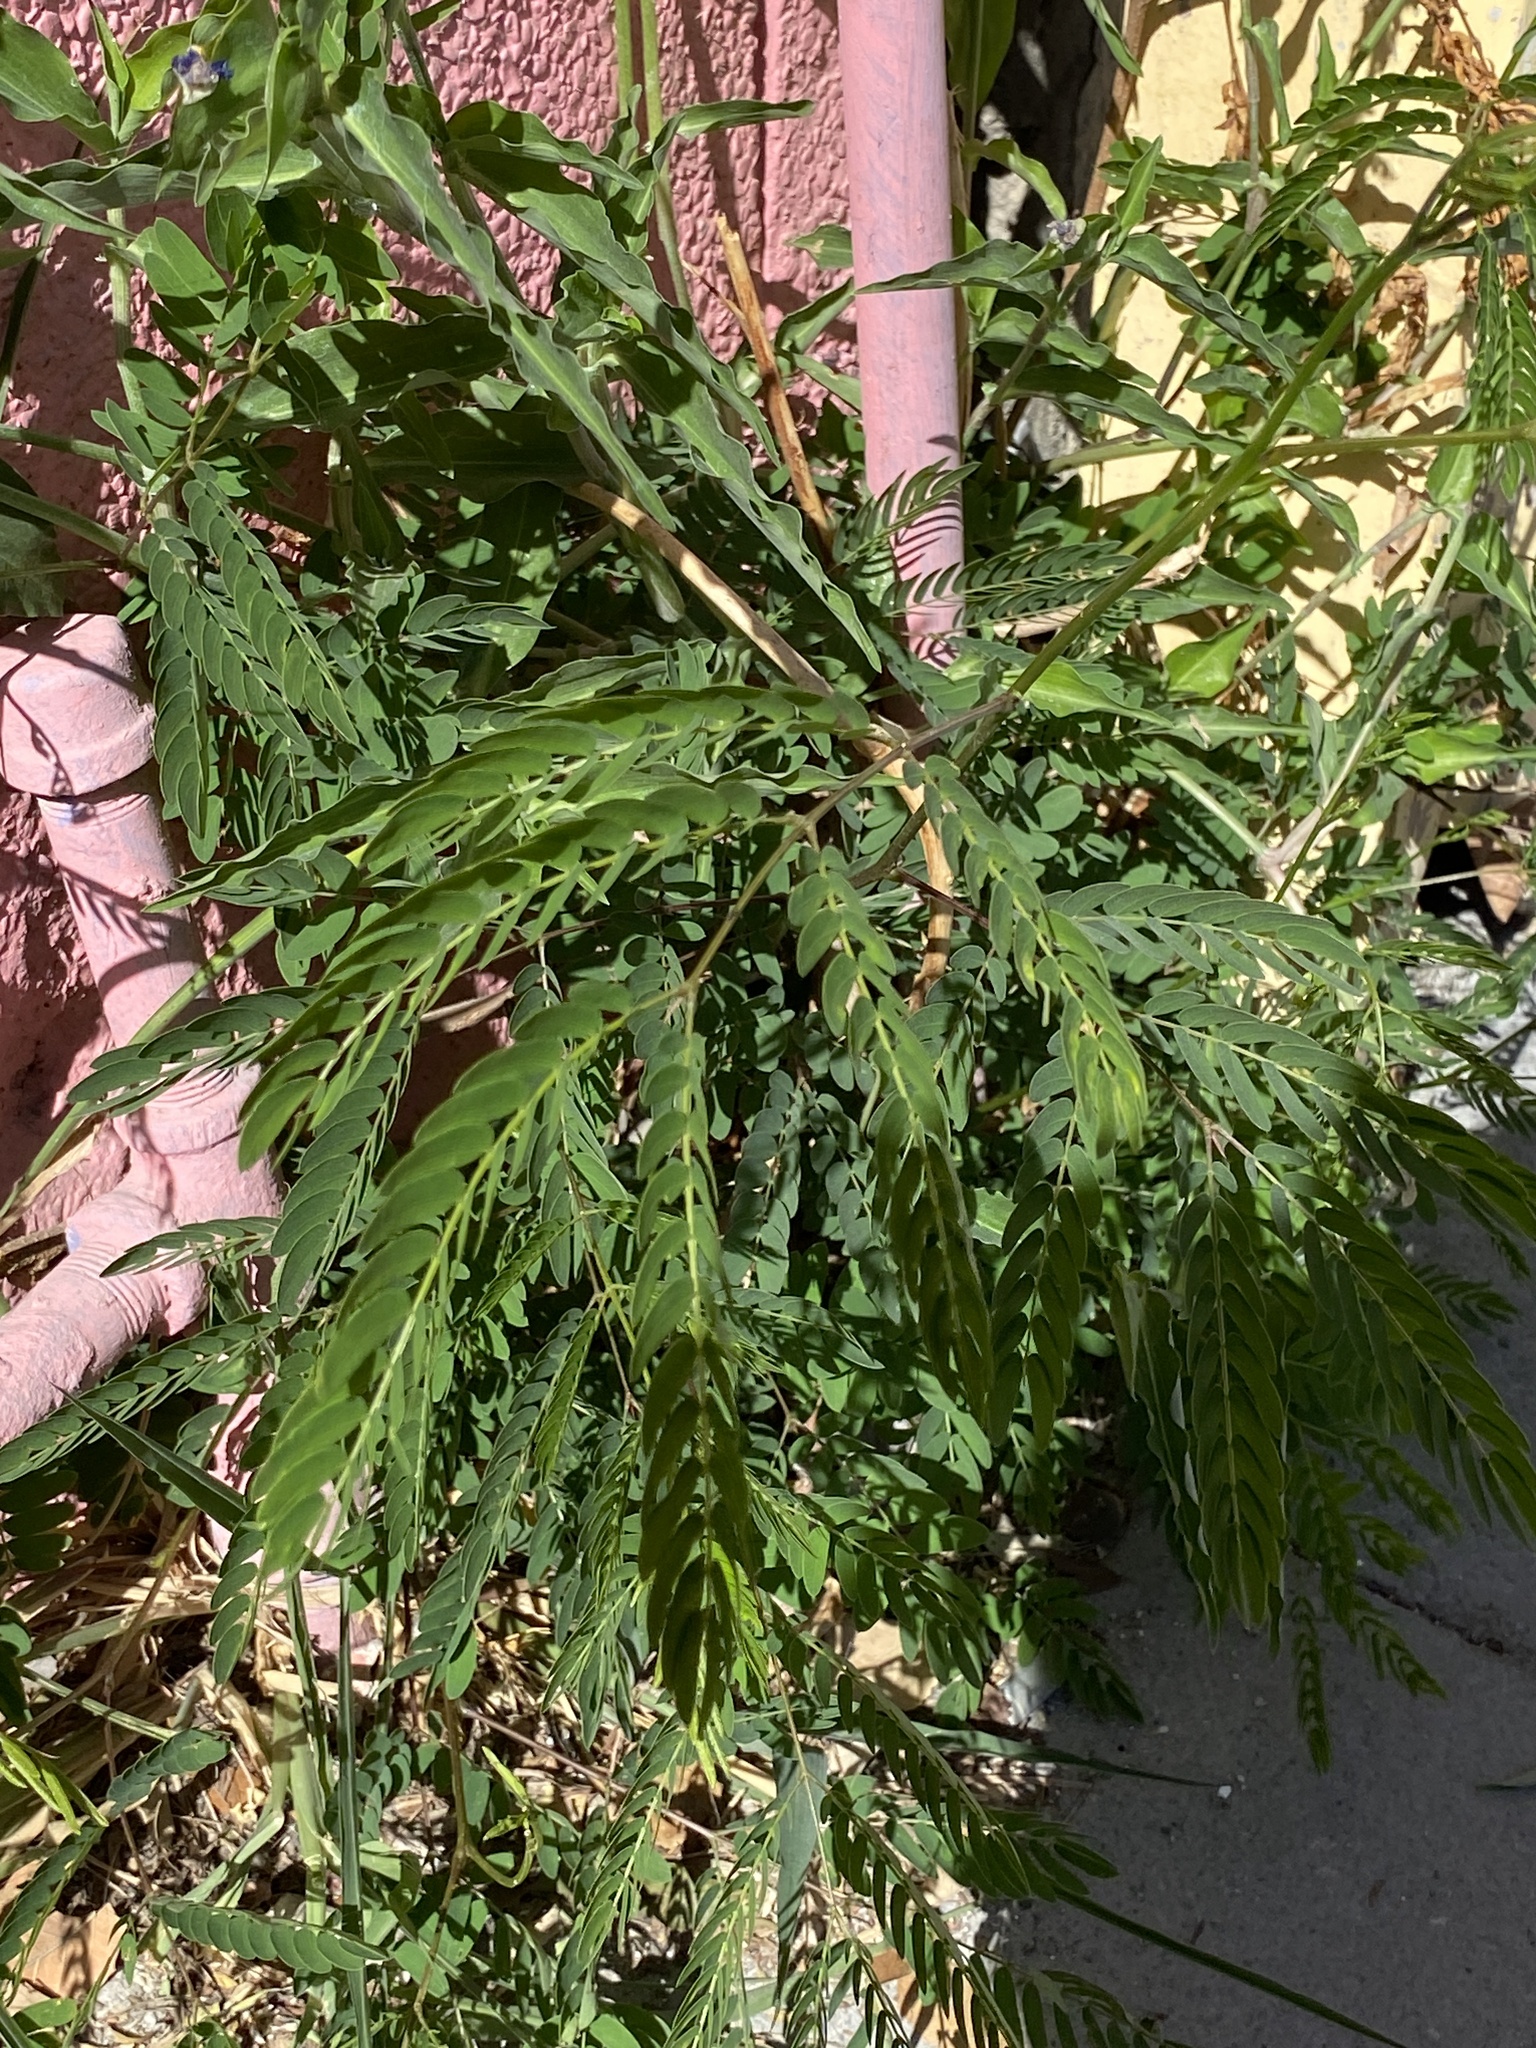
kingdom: Plantae
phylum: Tracheophyta
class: Magnoliopsida
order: Fabales
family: Fabaceae
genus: Leucaena
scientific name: Leucaena leucocephala
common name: White leadtree
